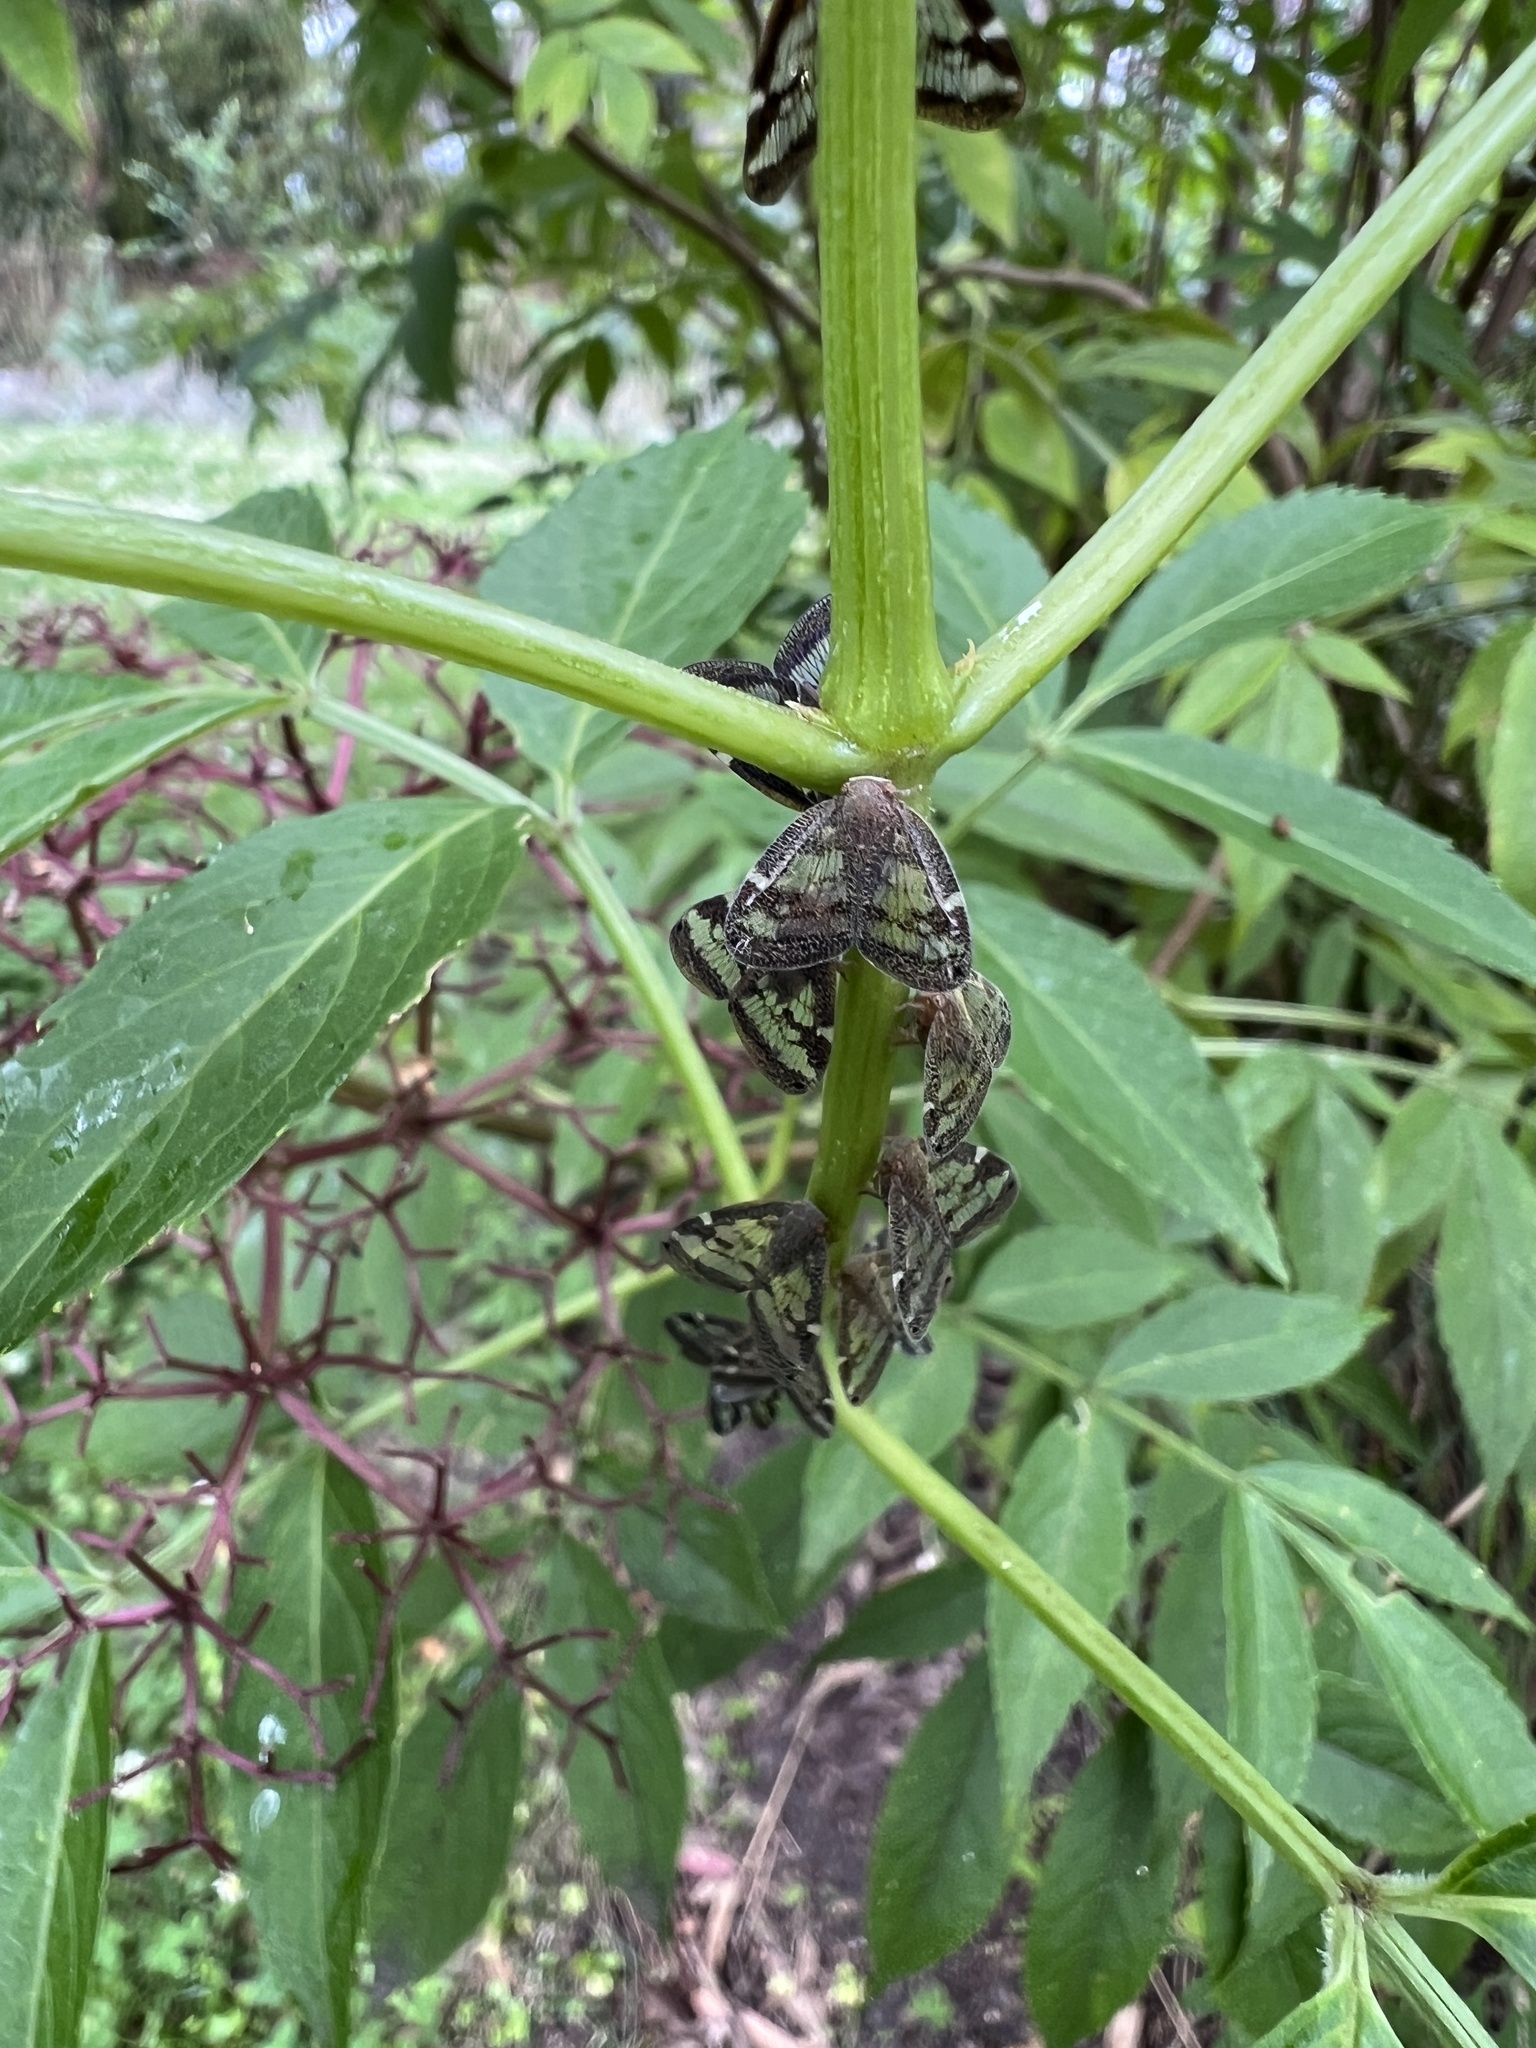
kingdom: Animalia
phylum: Arthropoda
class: Insecta
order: Hemiptera
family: Ricaniidae
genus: Scolypopa
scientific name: Scolypopa australis
